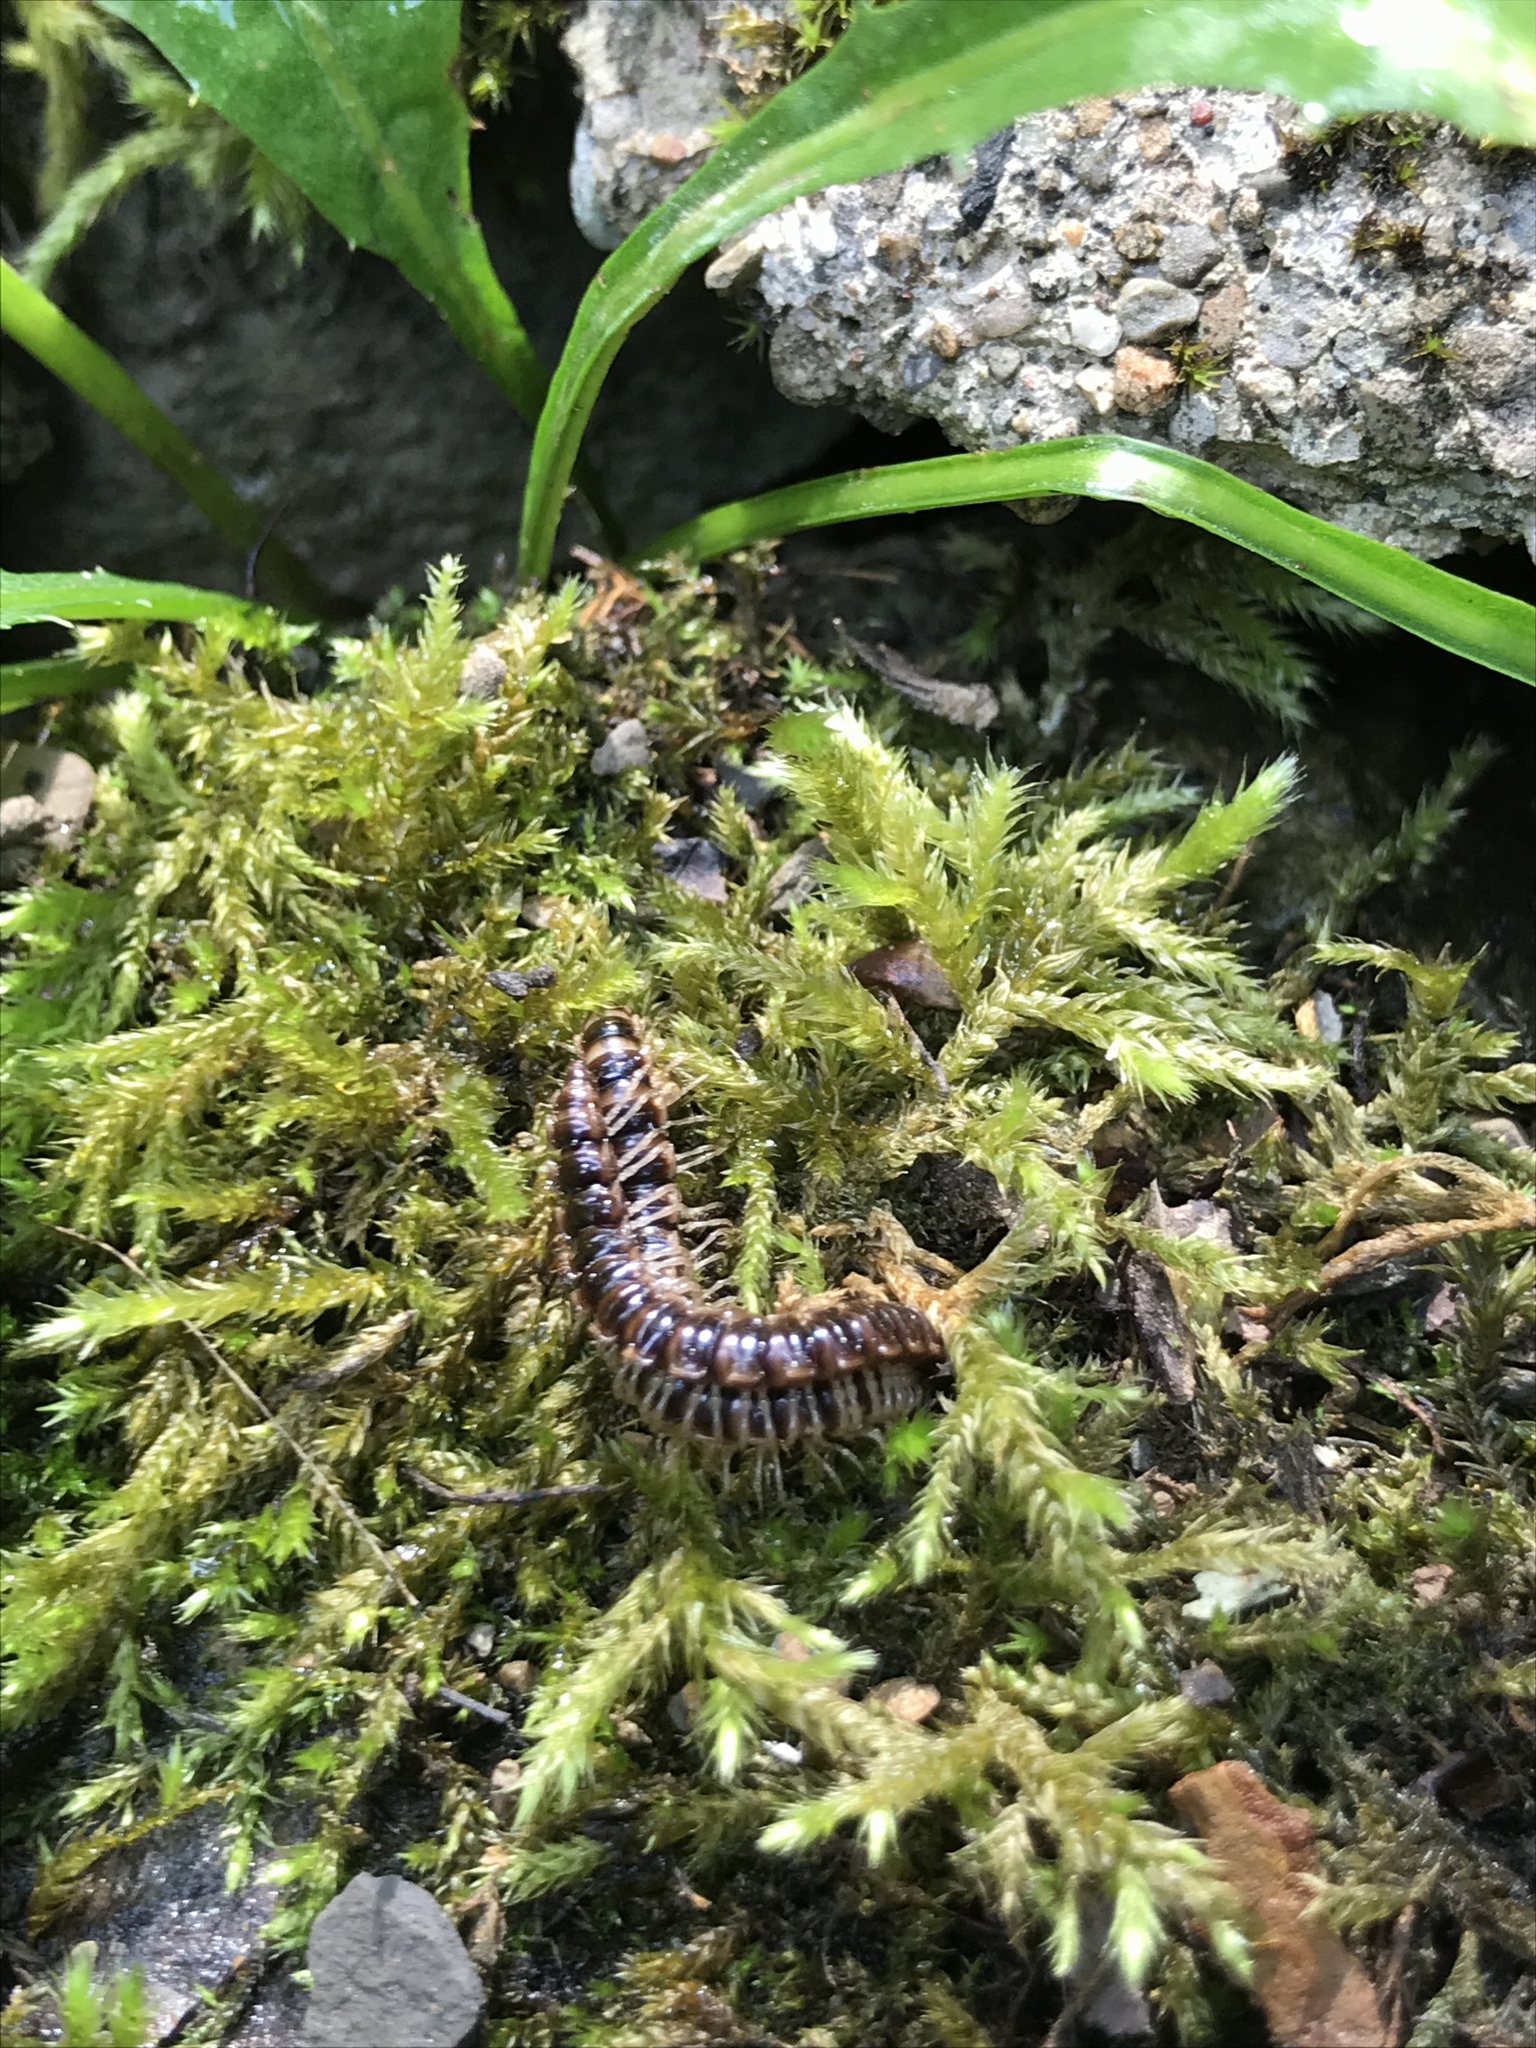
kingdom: Animalia
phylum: Arthropoda
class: Diplopoda
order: Polydesmida
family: Paradoxosomatidae
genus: Oxidus
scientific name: Oxidus gracilis
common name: Greenhouse millipede
